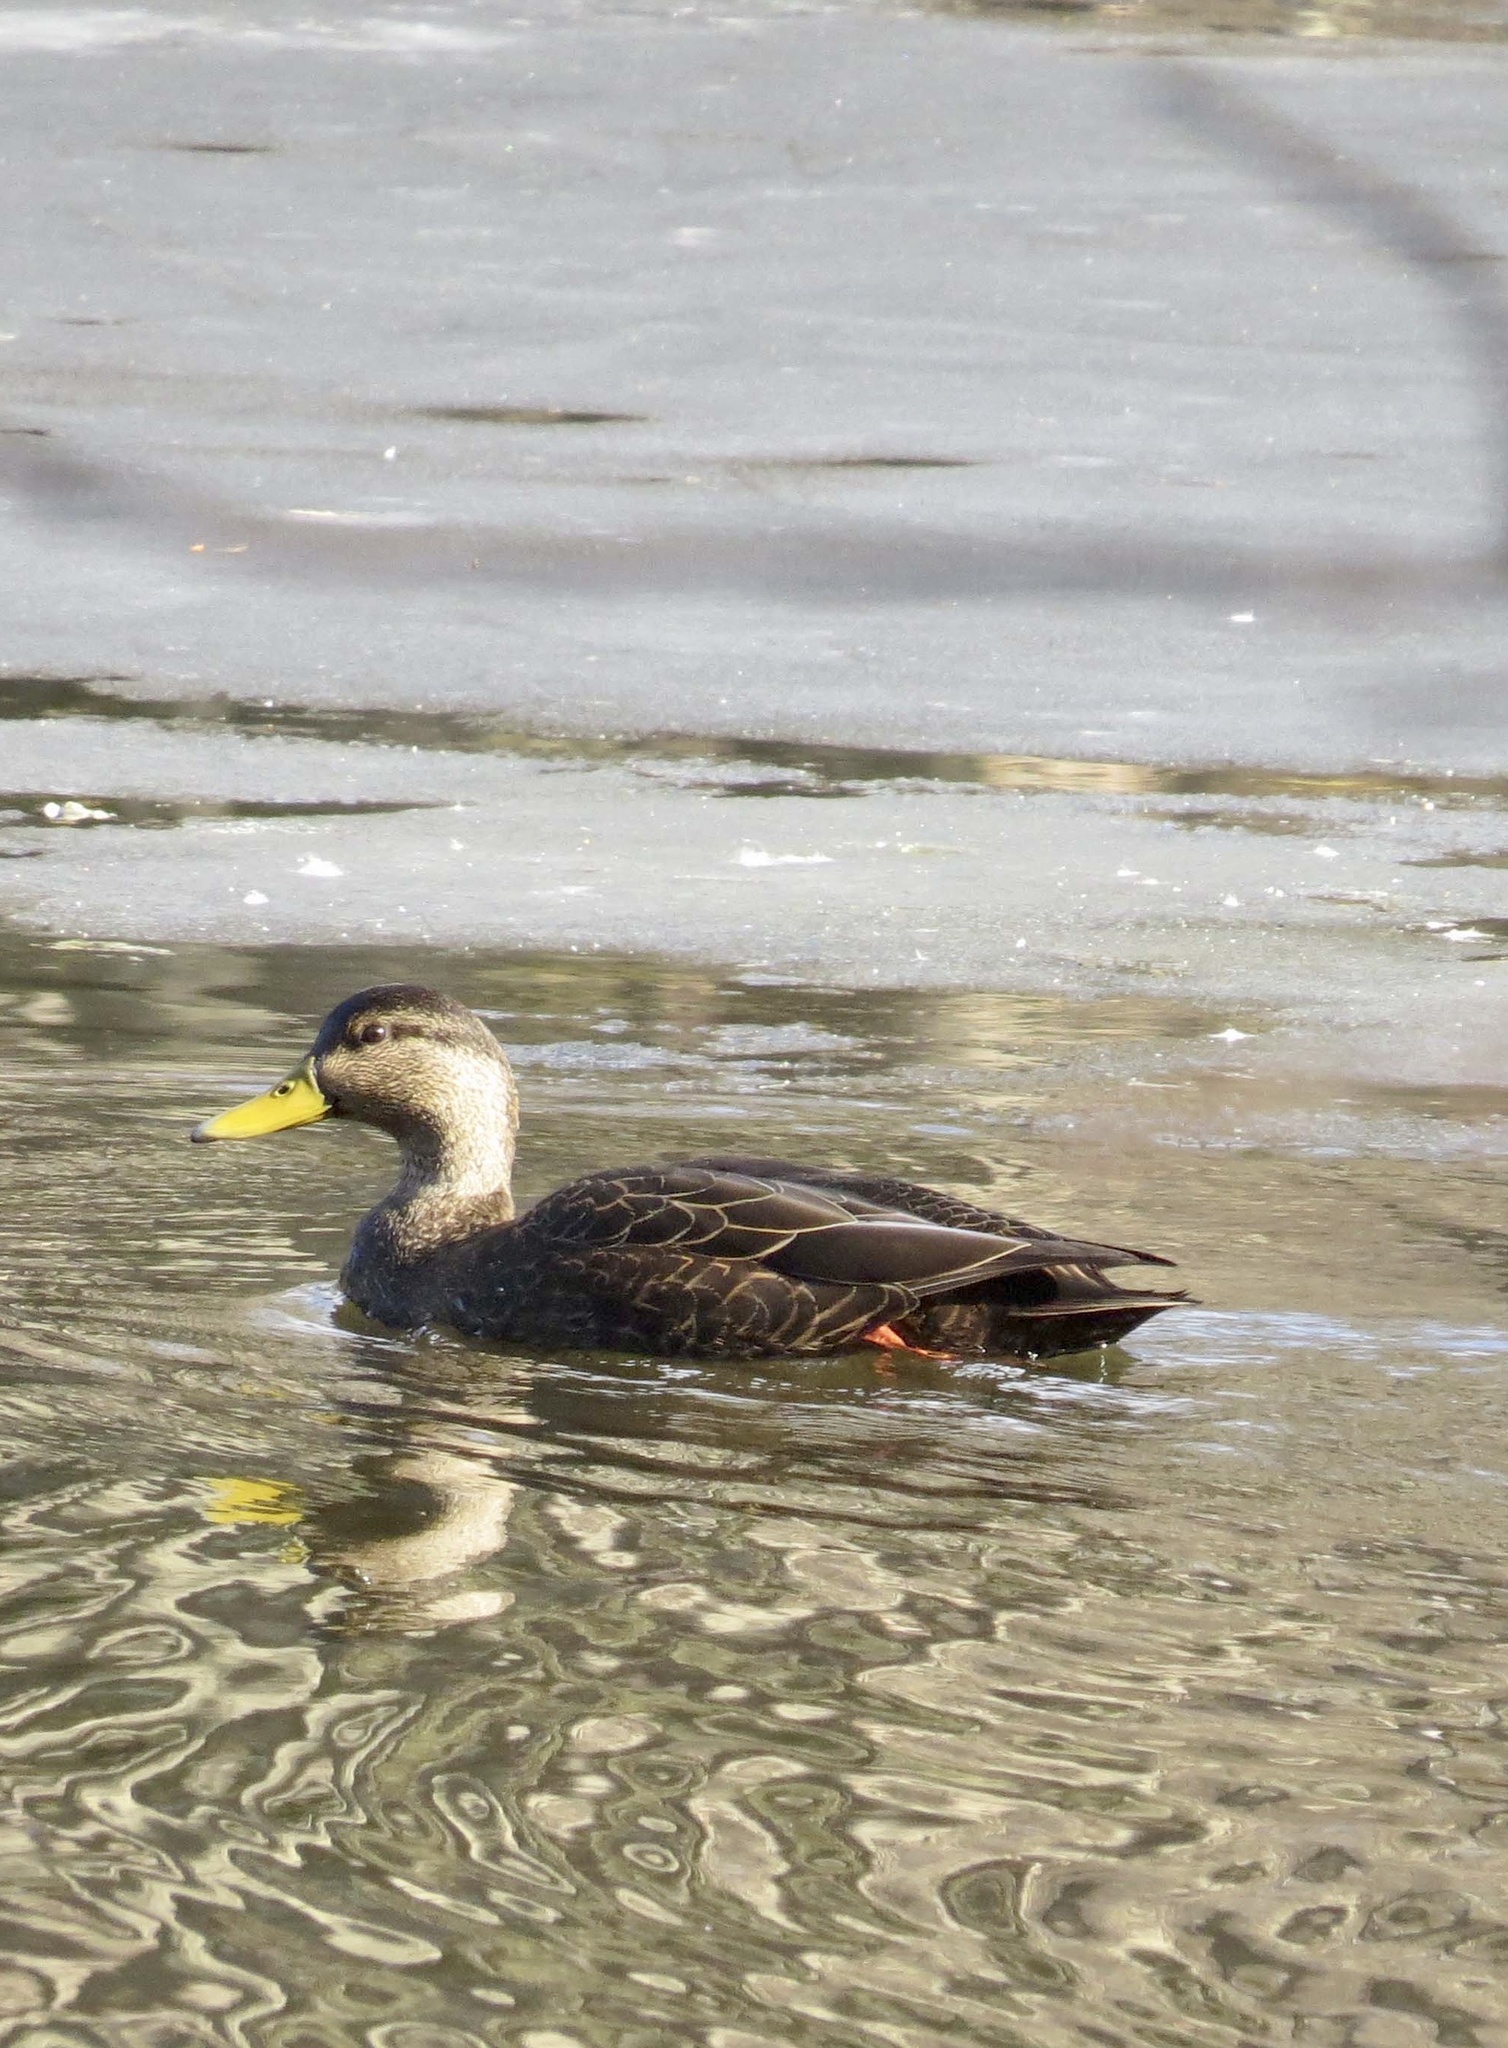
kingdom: Animalia
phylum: Chordata
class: Aves
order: Anseriformes
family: Anatidae
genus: Anas
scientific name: Anas rubripes
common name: American black duck
